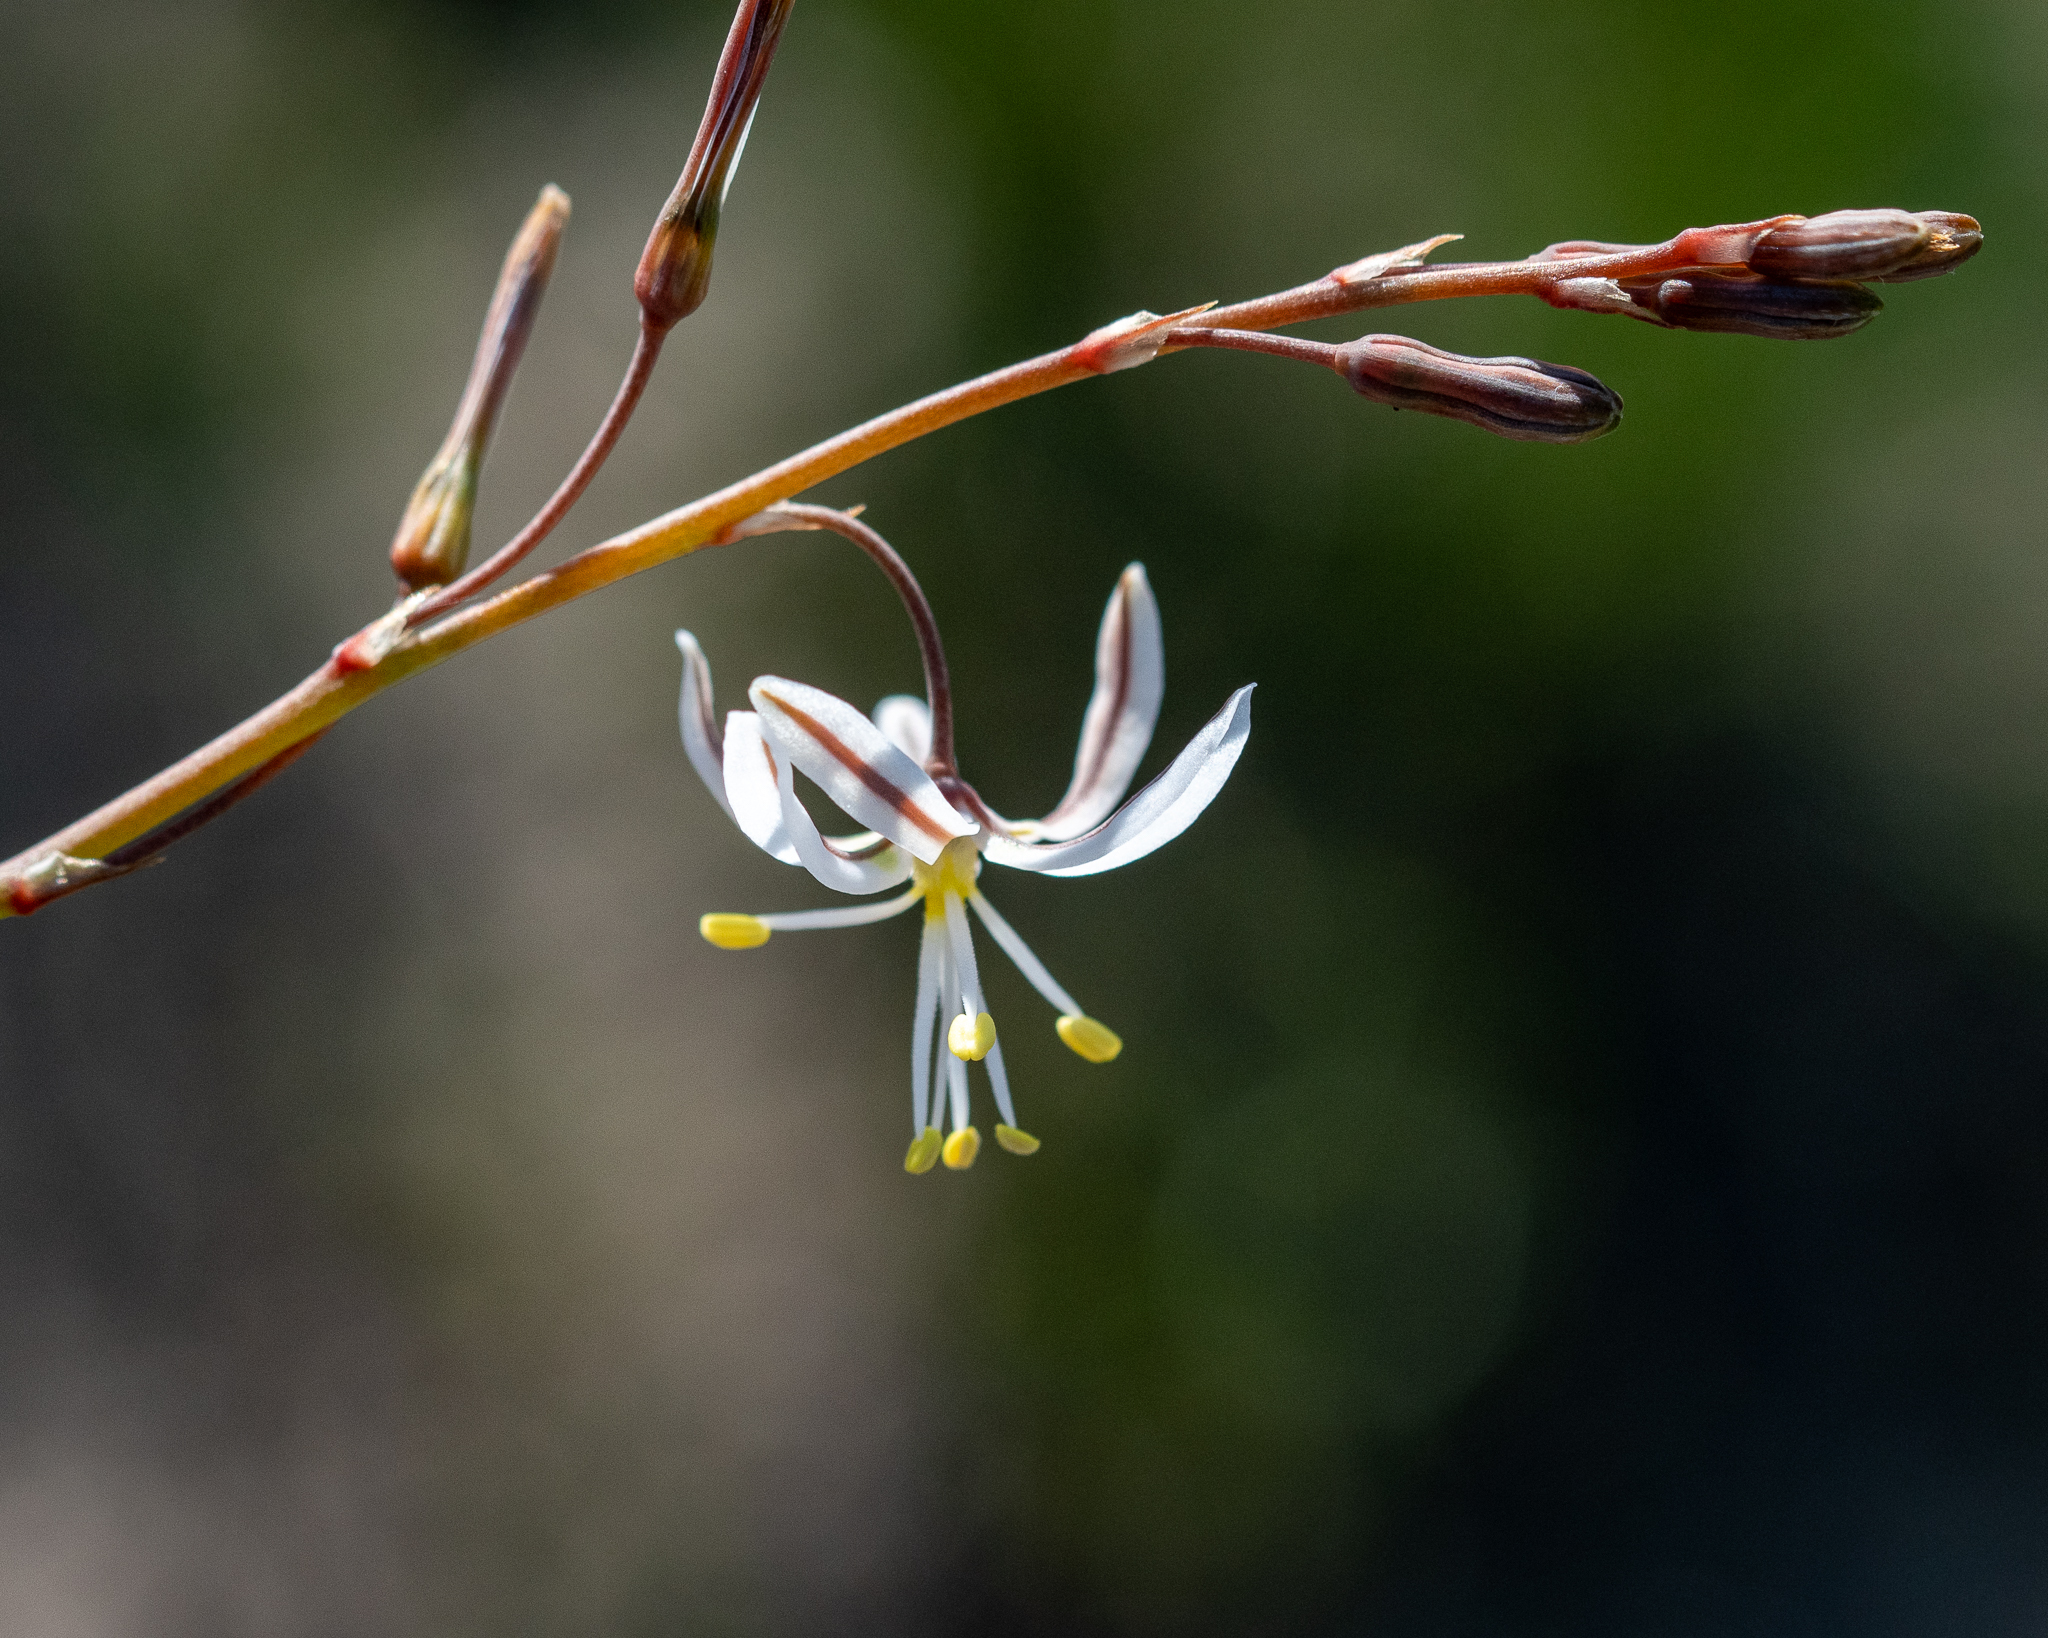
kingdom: Plantae
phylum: Tracheophyta
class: Liliopsida
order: Asparagales
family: Asphodelaceae
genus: Trachyandra
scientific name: Trachyandra divaricata
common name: Dune onionweed
